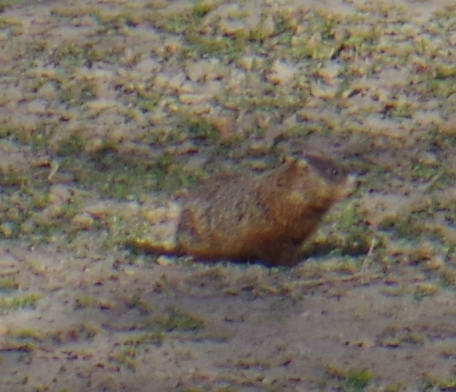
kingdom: Animalia
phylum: Chordata
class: Mammalia
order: Rodentia
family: Sciuridae
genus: Marmota
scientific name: Marmota monax
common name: Groundhog
